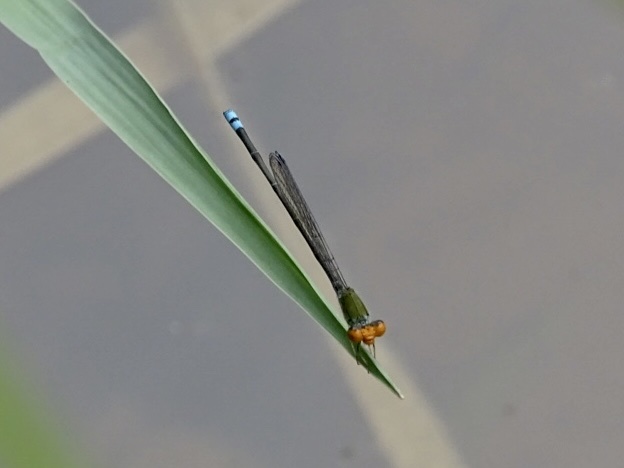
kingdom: Animalia
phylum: Arthropoda
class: Insecta
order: Odonata
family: Coenagrionidae
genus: Pseudagrion
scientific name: Pseudagrion rubriceps
